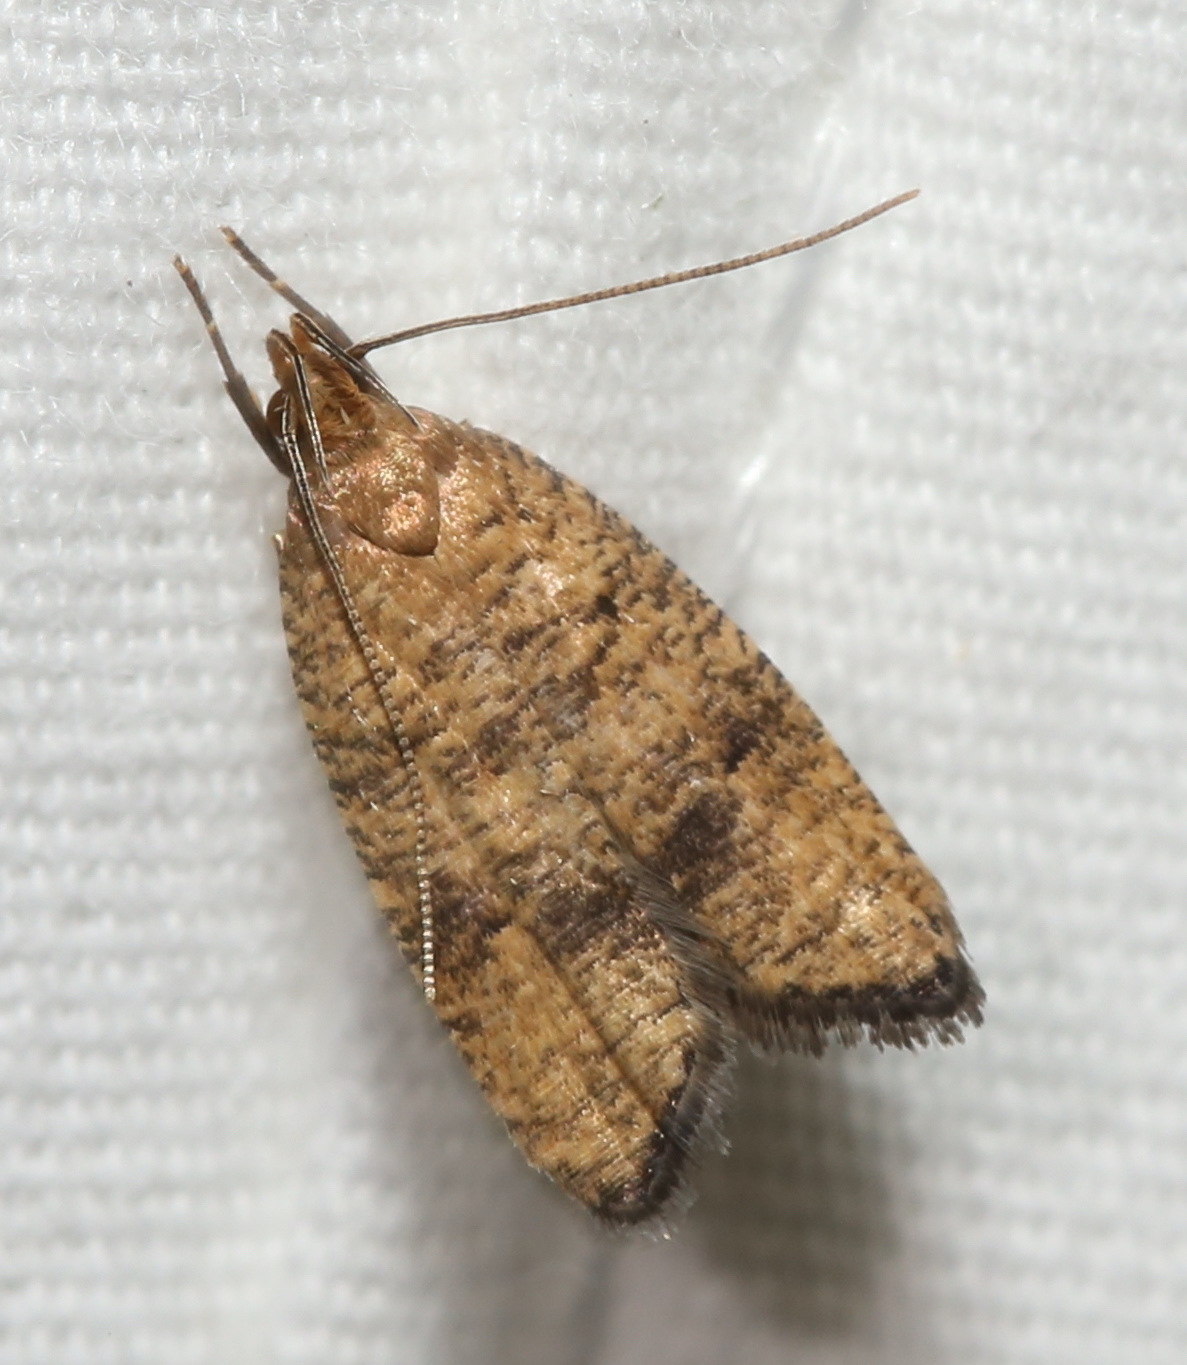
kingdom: Animalia
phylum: Arthropoda
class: Insecta
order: Lepidoptera
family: Depressariidae
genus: Psilocorsis
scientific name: Psilocorsis quercicella
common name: Oak leaftier moth
